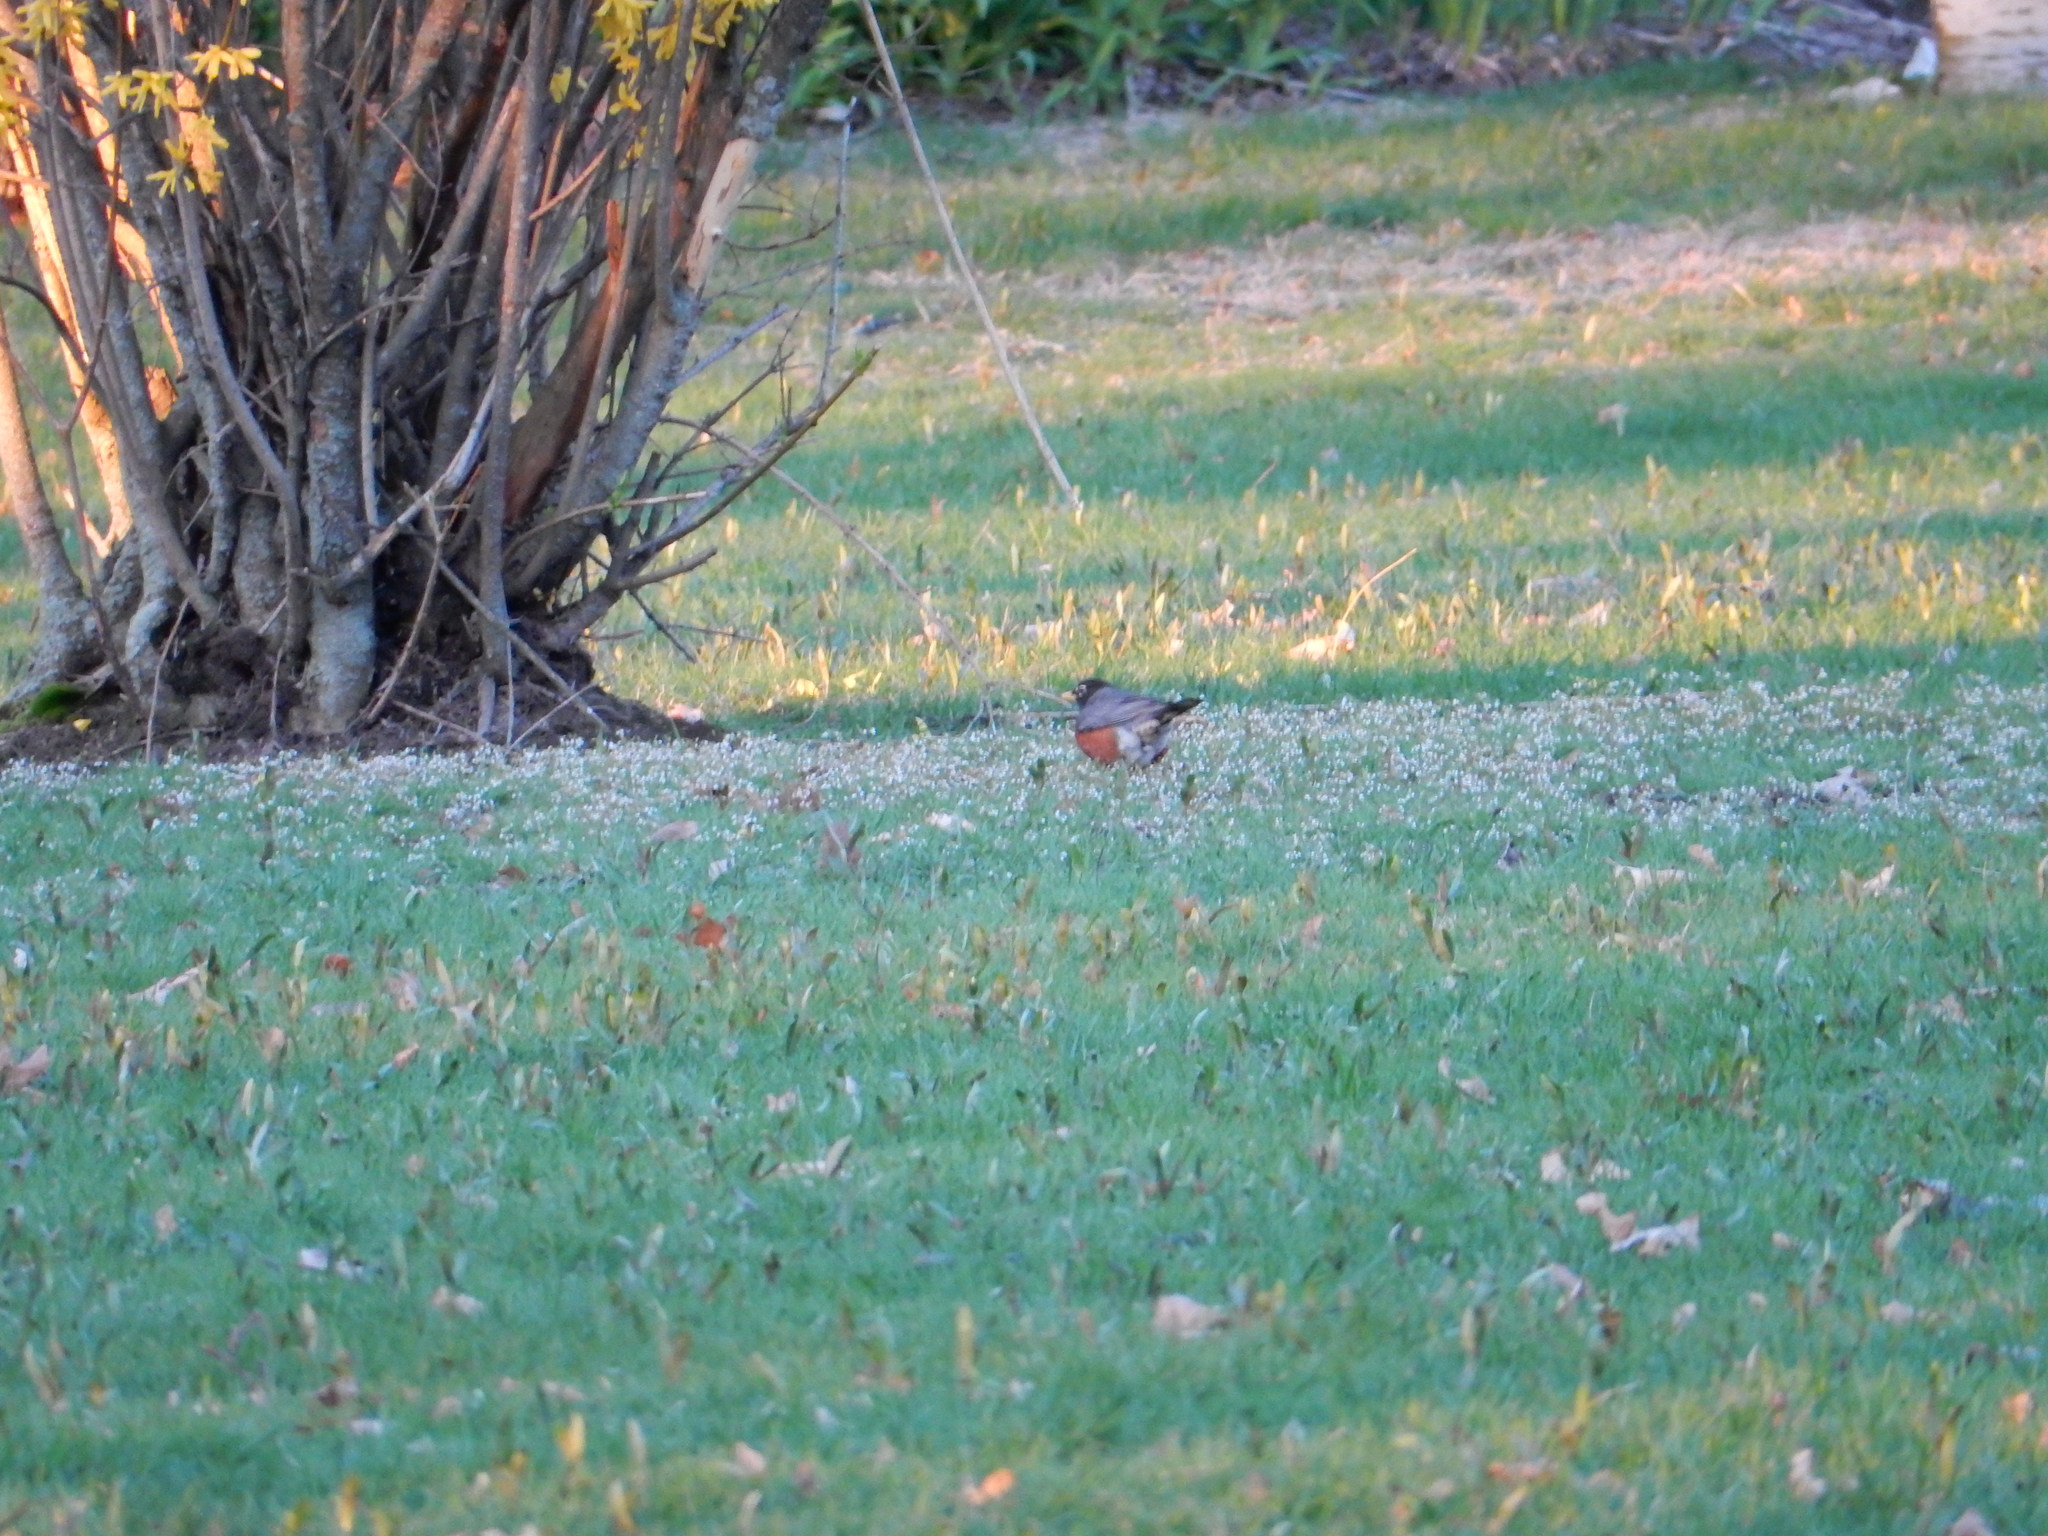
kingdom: Animalia
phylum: Chordata
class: Aves
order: Passeriformes
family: Turdidae
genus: Turdus
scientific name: Turdus migratorius
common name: American robin
